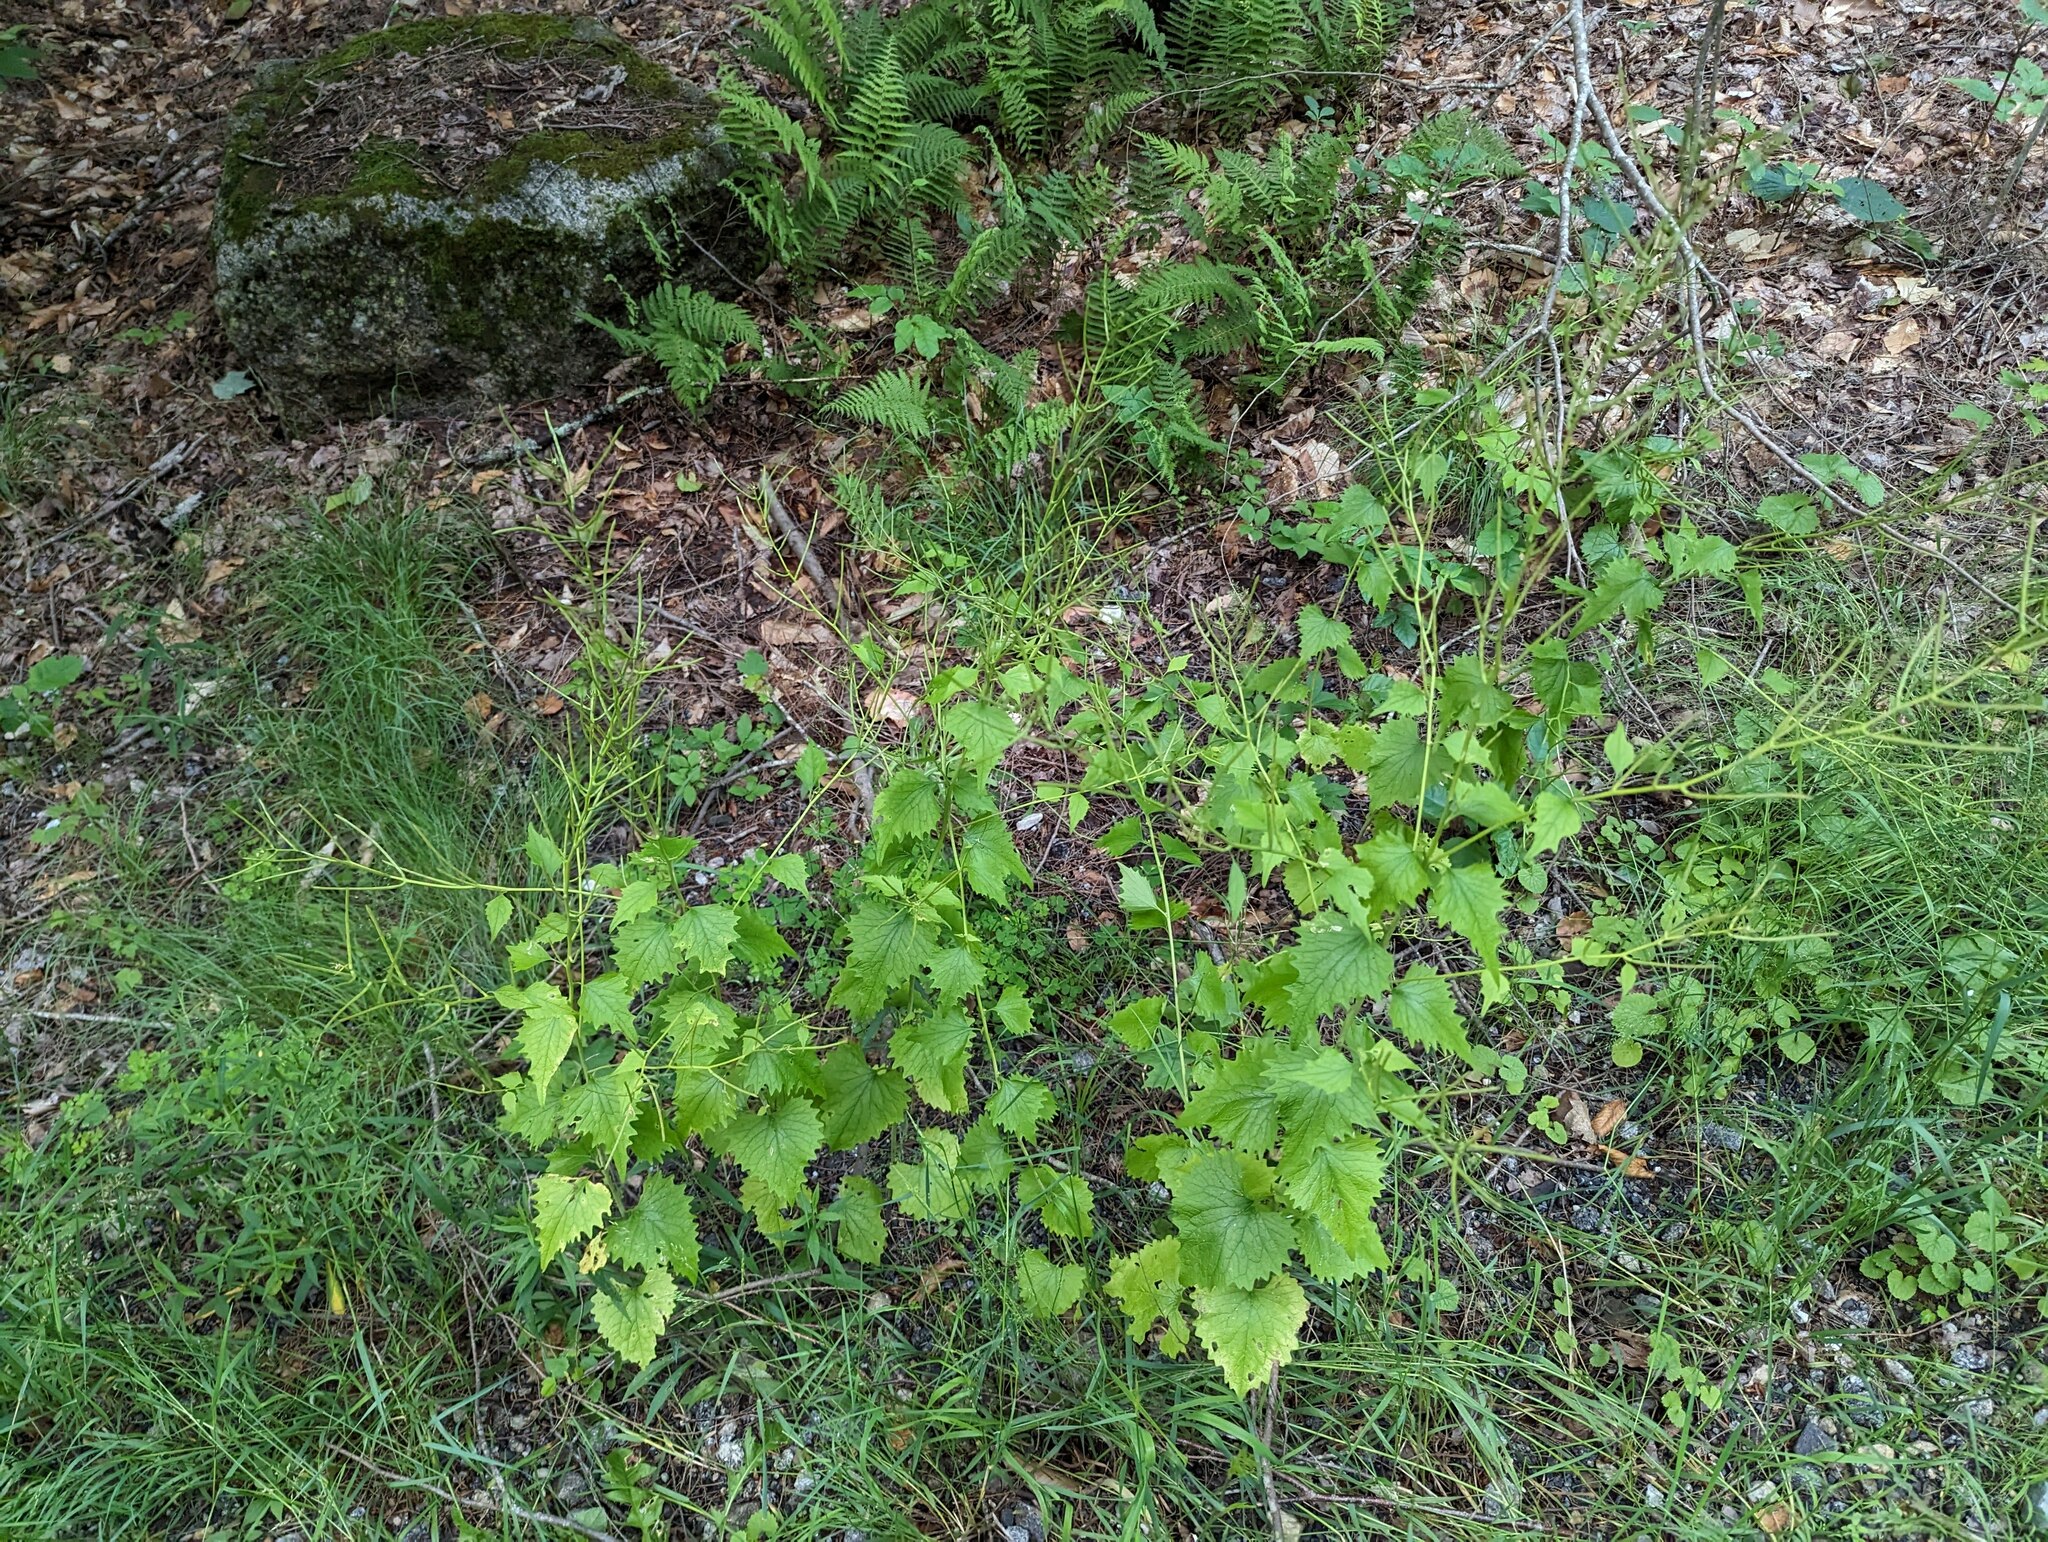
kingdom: Plantae
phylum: Tracheophyta
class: Magnoliopsida
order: Brassicales
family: Brassicaceae
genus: Alliaria
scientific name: Alliaria petiolata
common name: Garlic mustard
